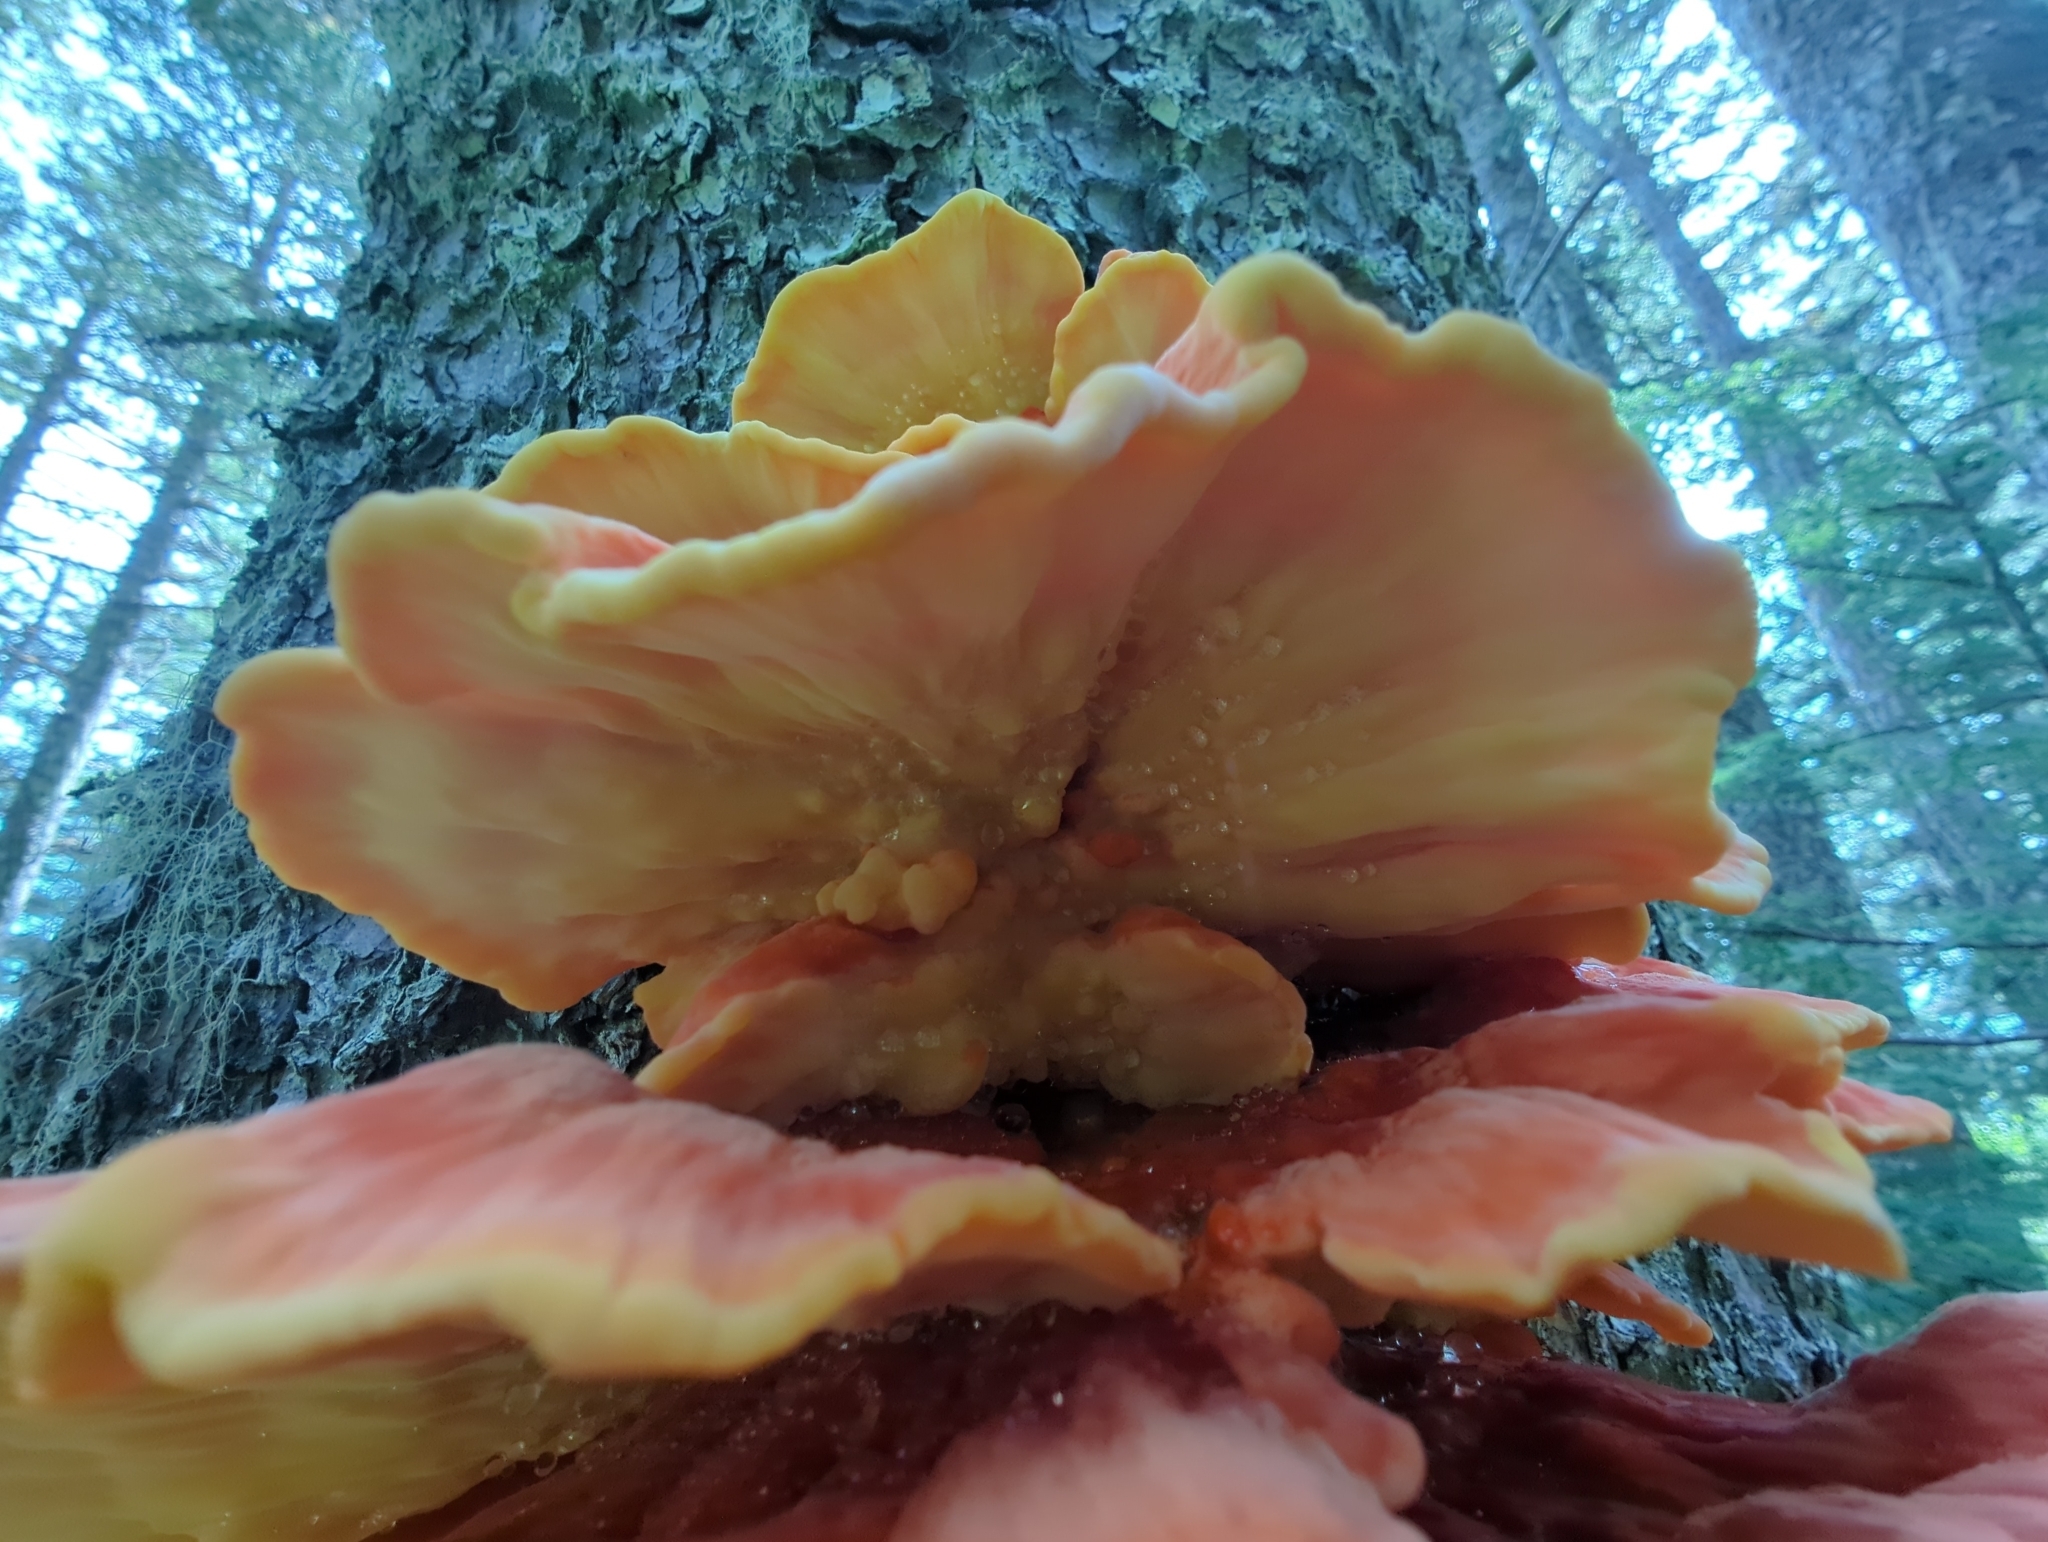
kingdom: Fungi
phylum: Basidiomycota
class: Agaricomycetes
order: Polyporales
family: Laetiporaceae
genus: Laetiporus
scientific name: Laetiporus conifericola
